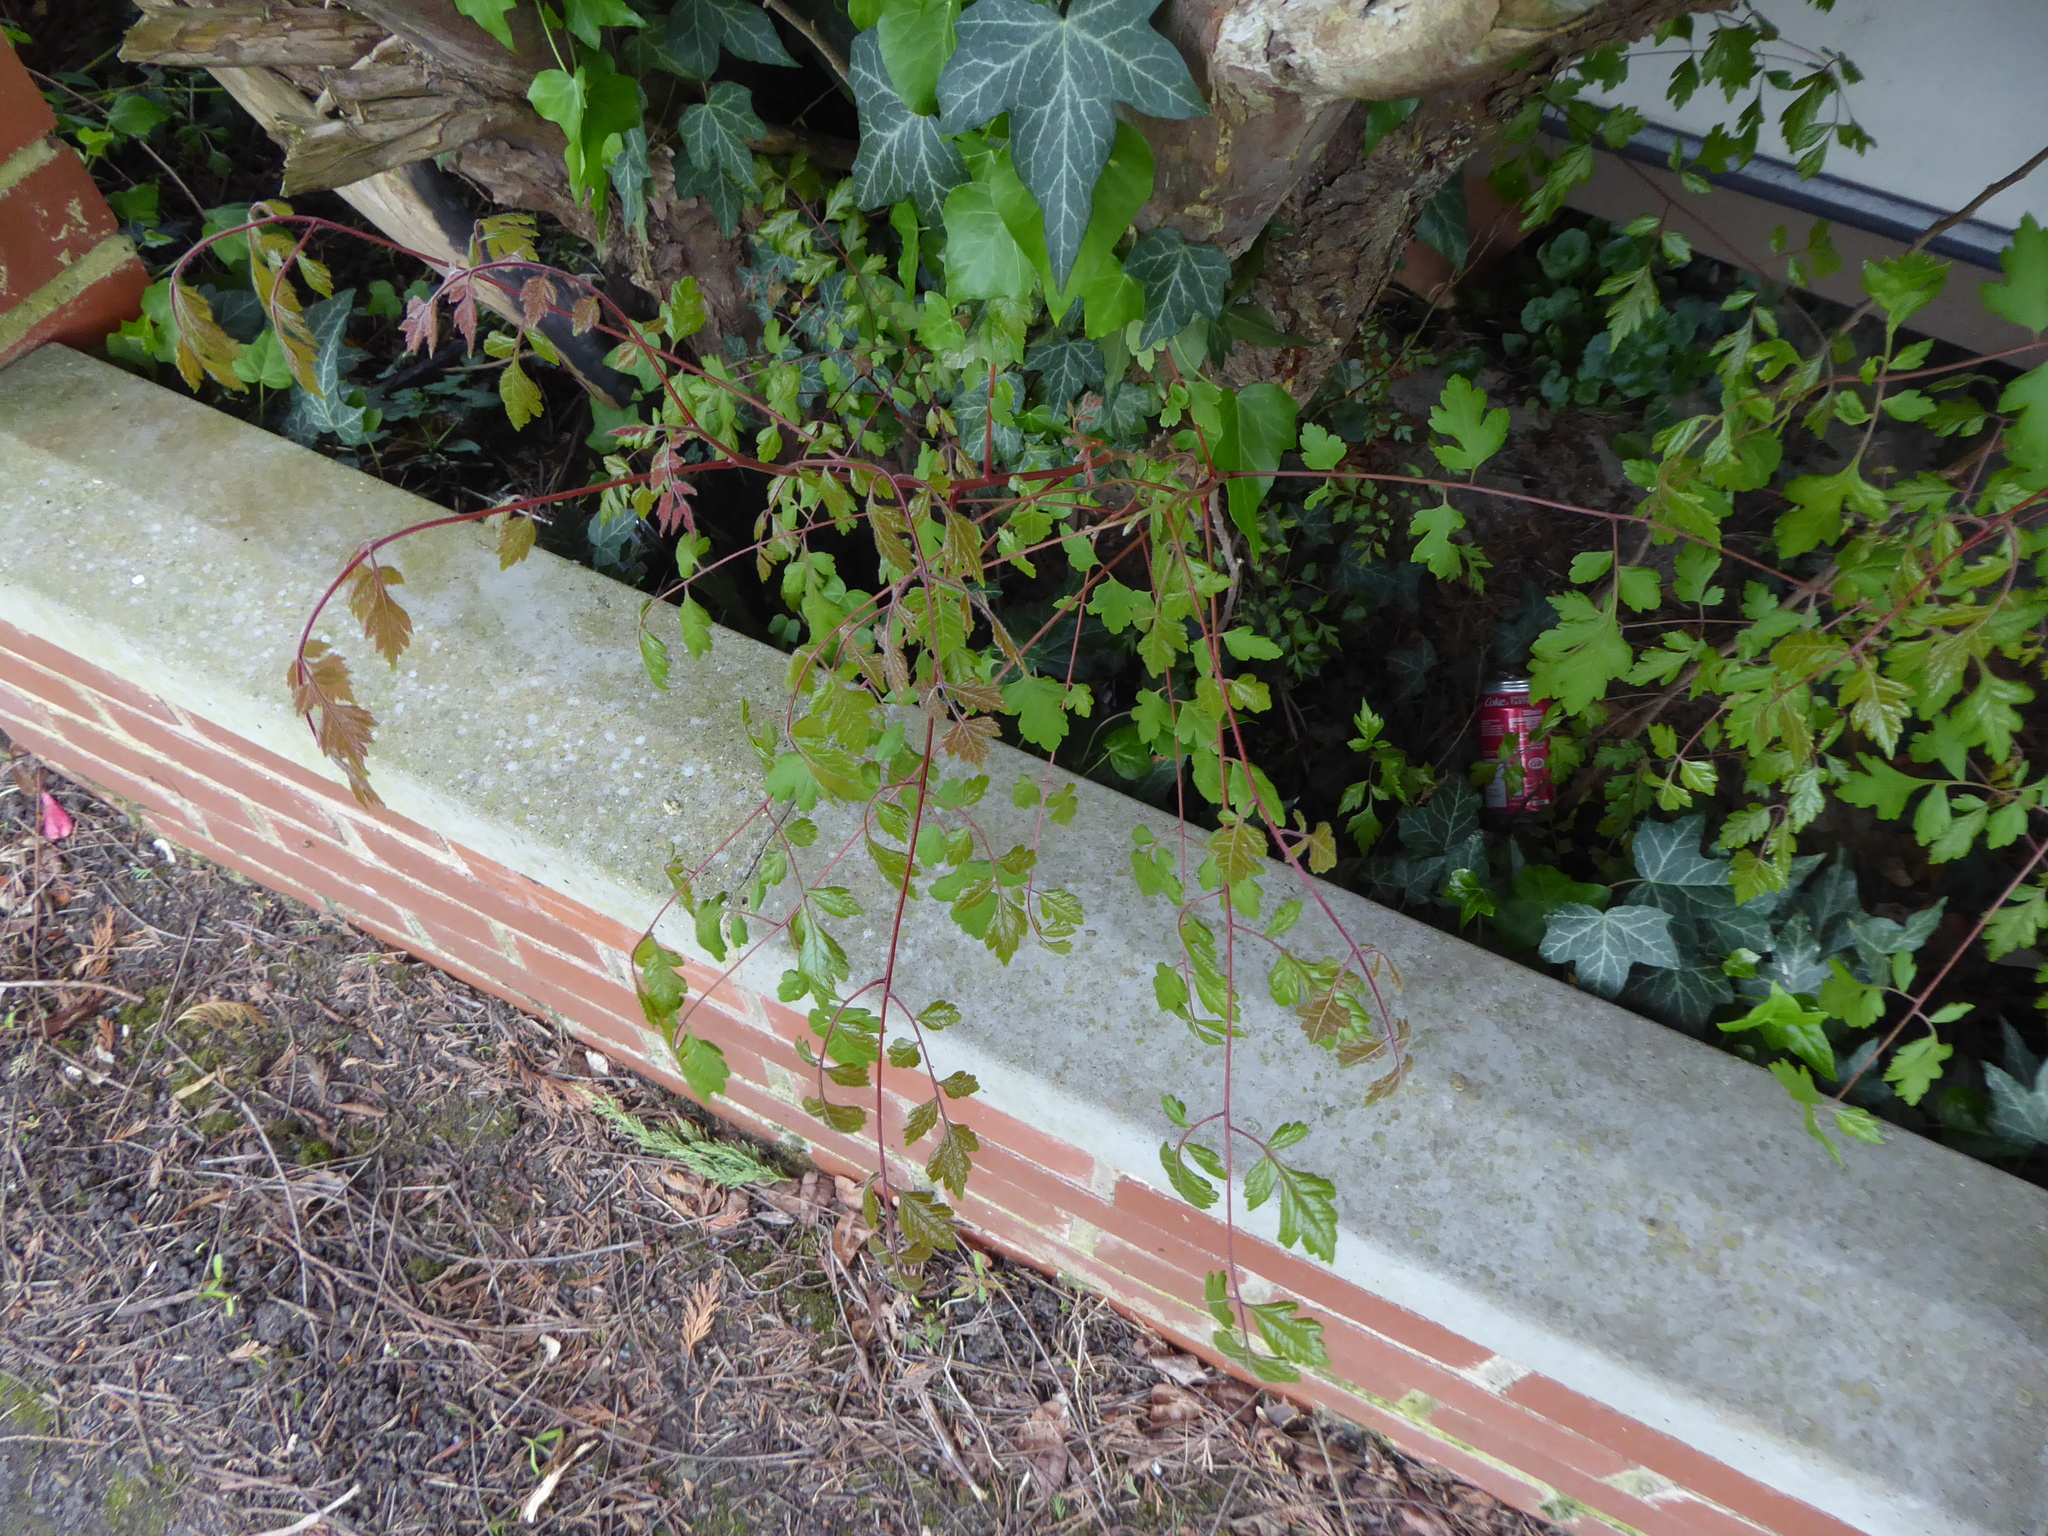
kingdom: Plantae
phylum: Tracheophyta
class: Magnoliopsida
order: Sapindales
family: Sapindaceae
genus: Koelreuteria
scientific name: Koelreuteria paniculata
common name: Pride-of-india
